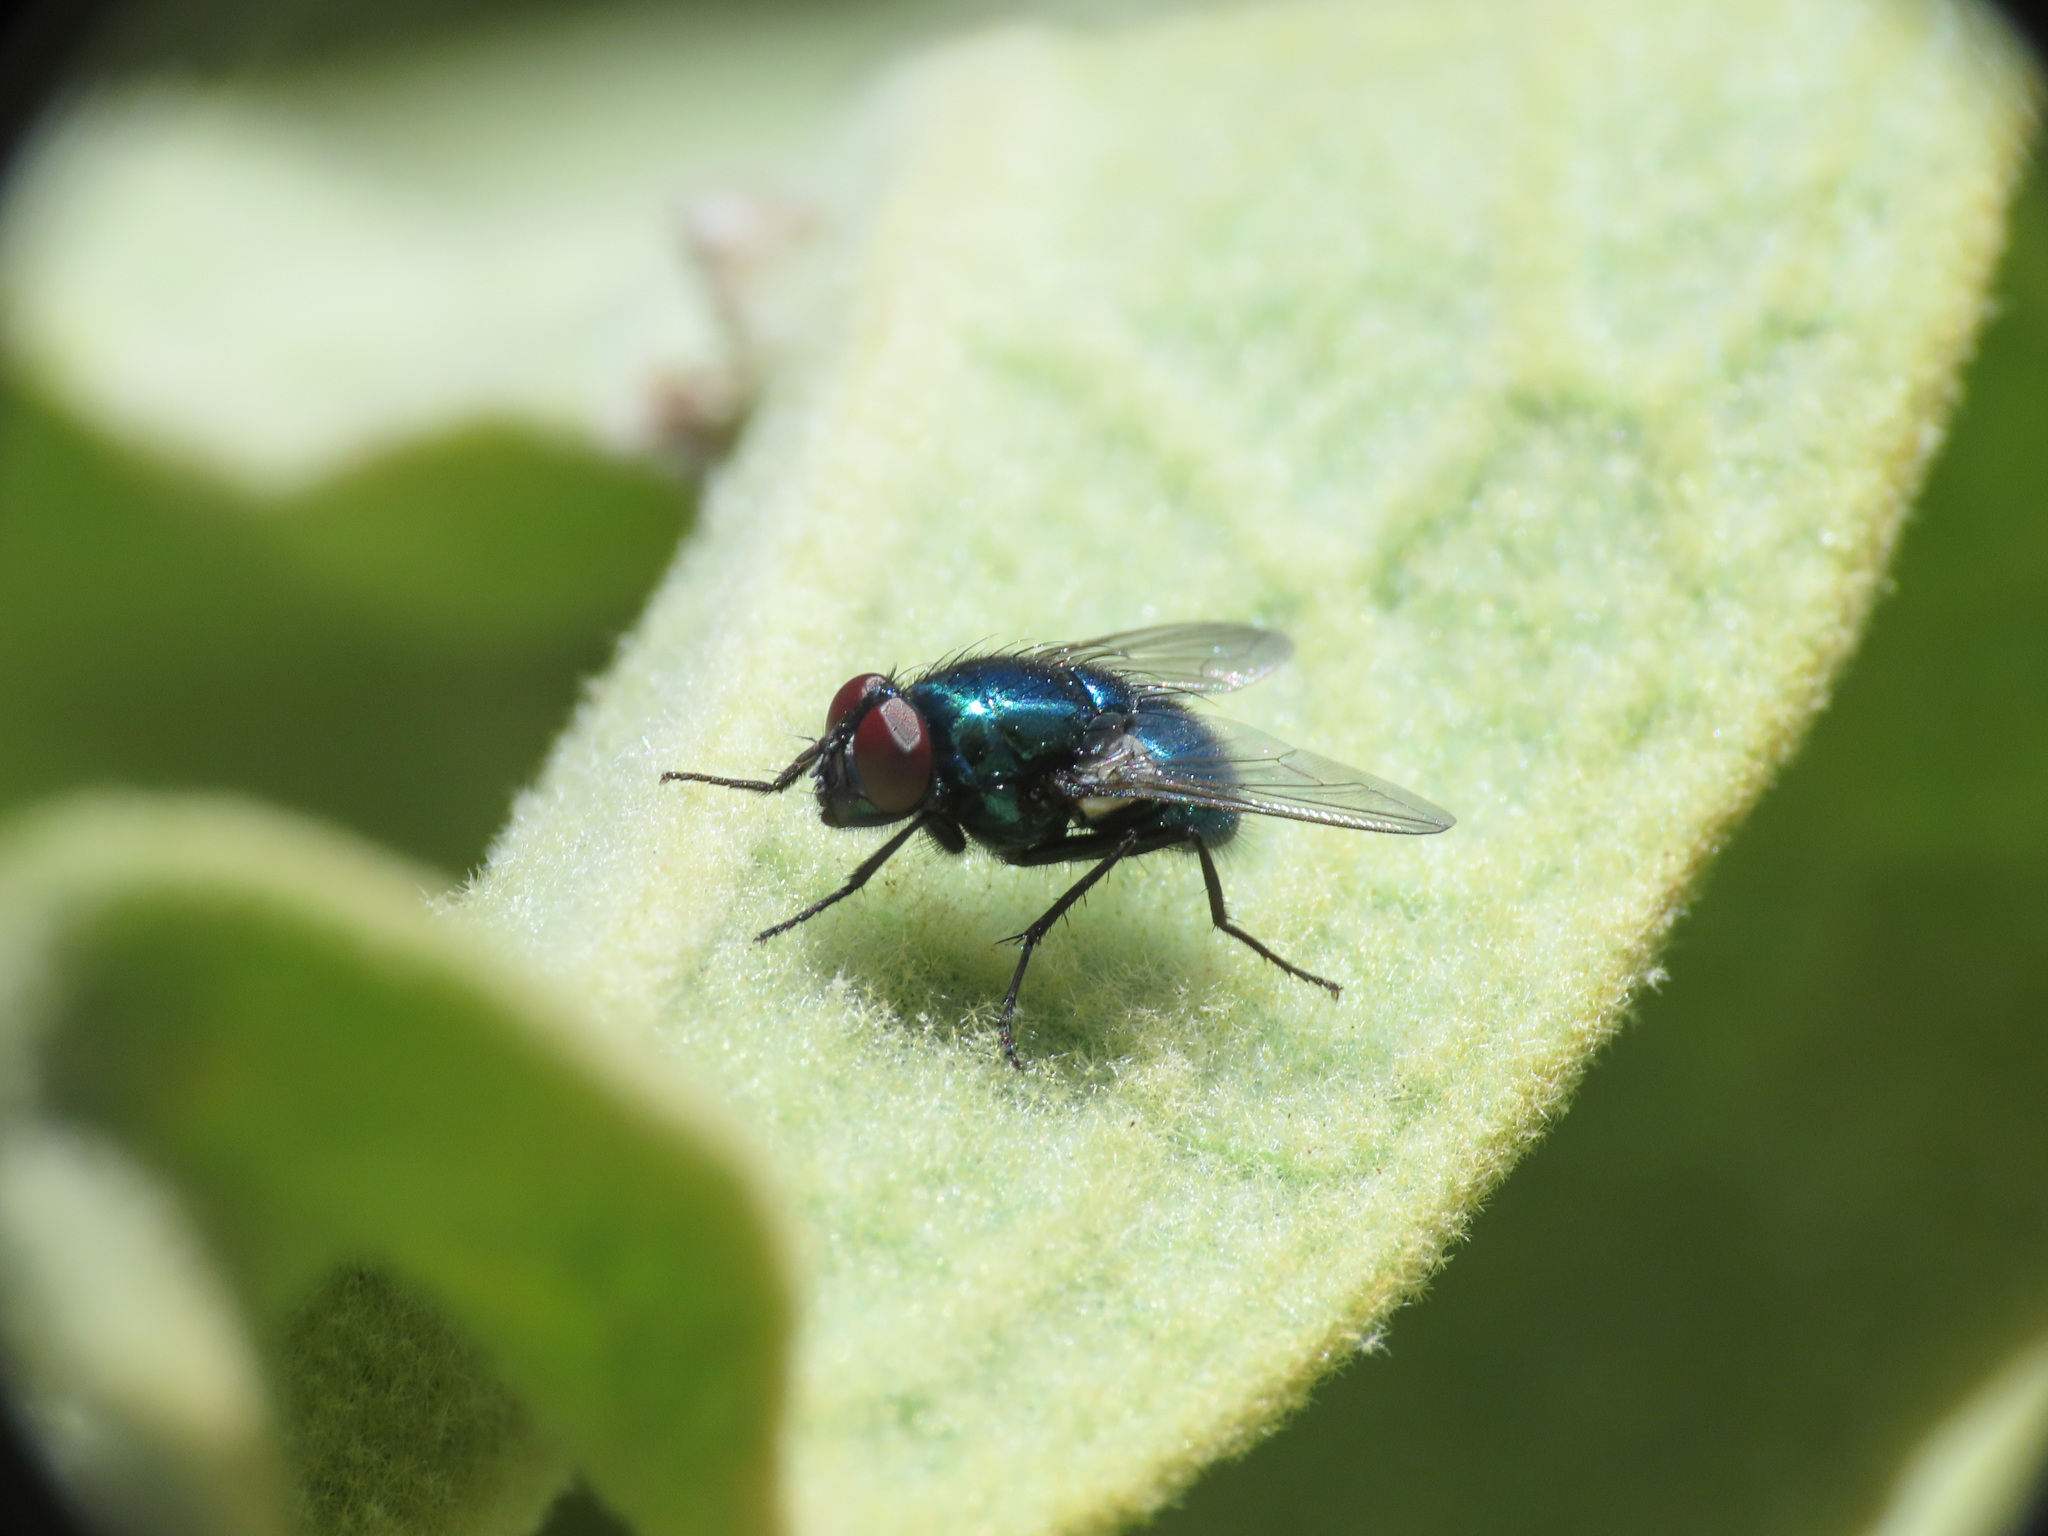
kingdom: Animalia
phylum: Arthropoda
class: Insecta
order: Diptera
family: Muscidae
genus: Neomyia
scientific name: Neomyia cornicina
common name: House fly
